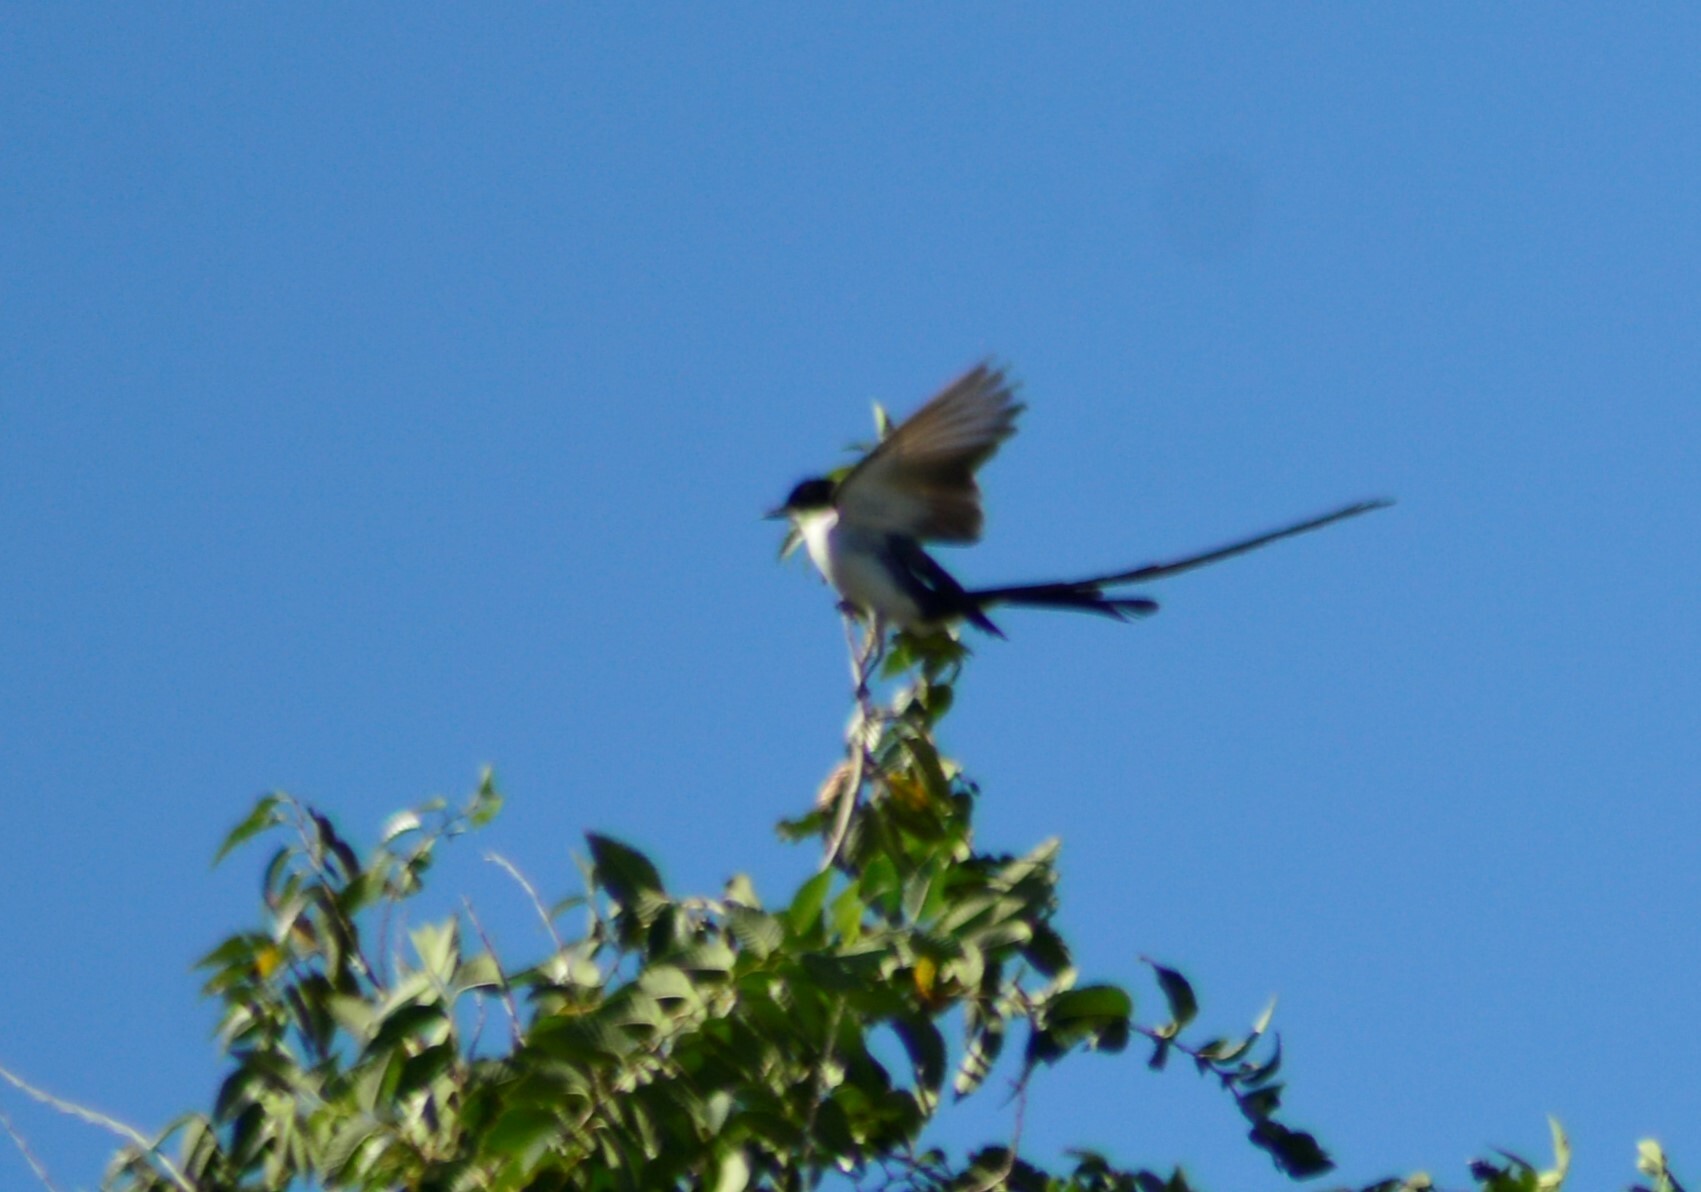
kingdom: Animalia
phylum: Chordata
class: Aves
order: Passeriformes
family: Tyrannidae
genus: Tyrannus
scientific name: Tyrannus savana
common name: Fork-tailed flycatcher
